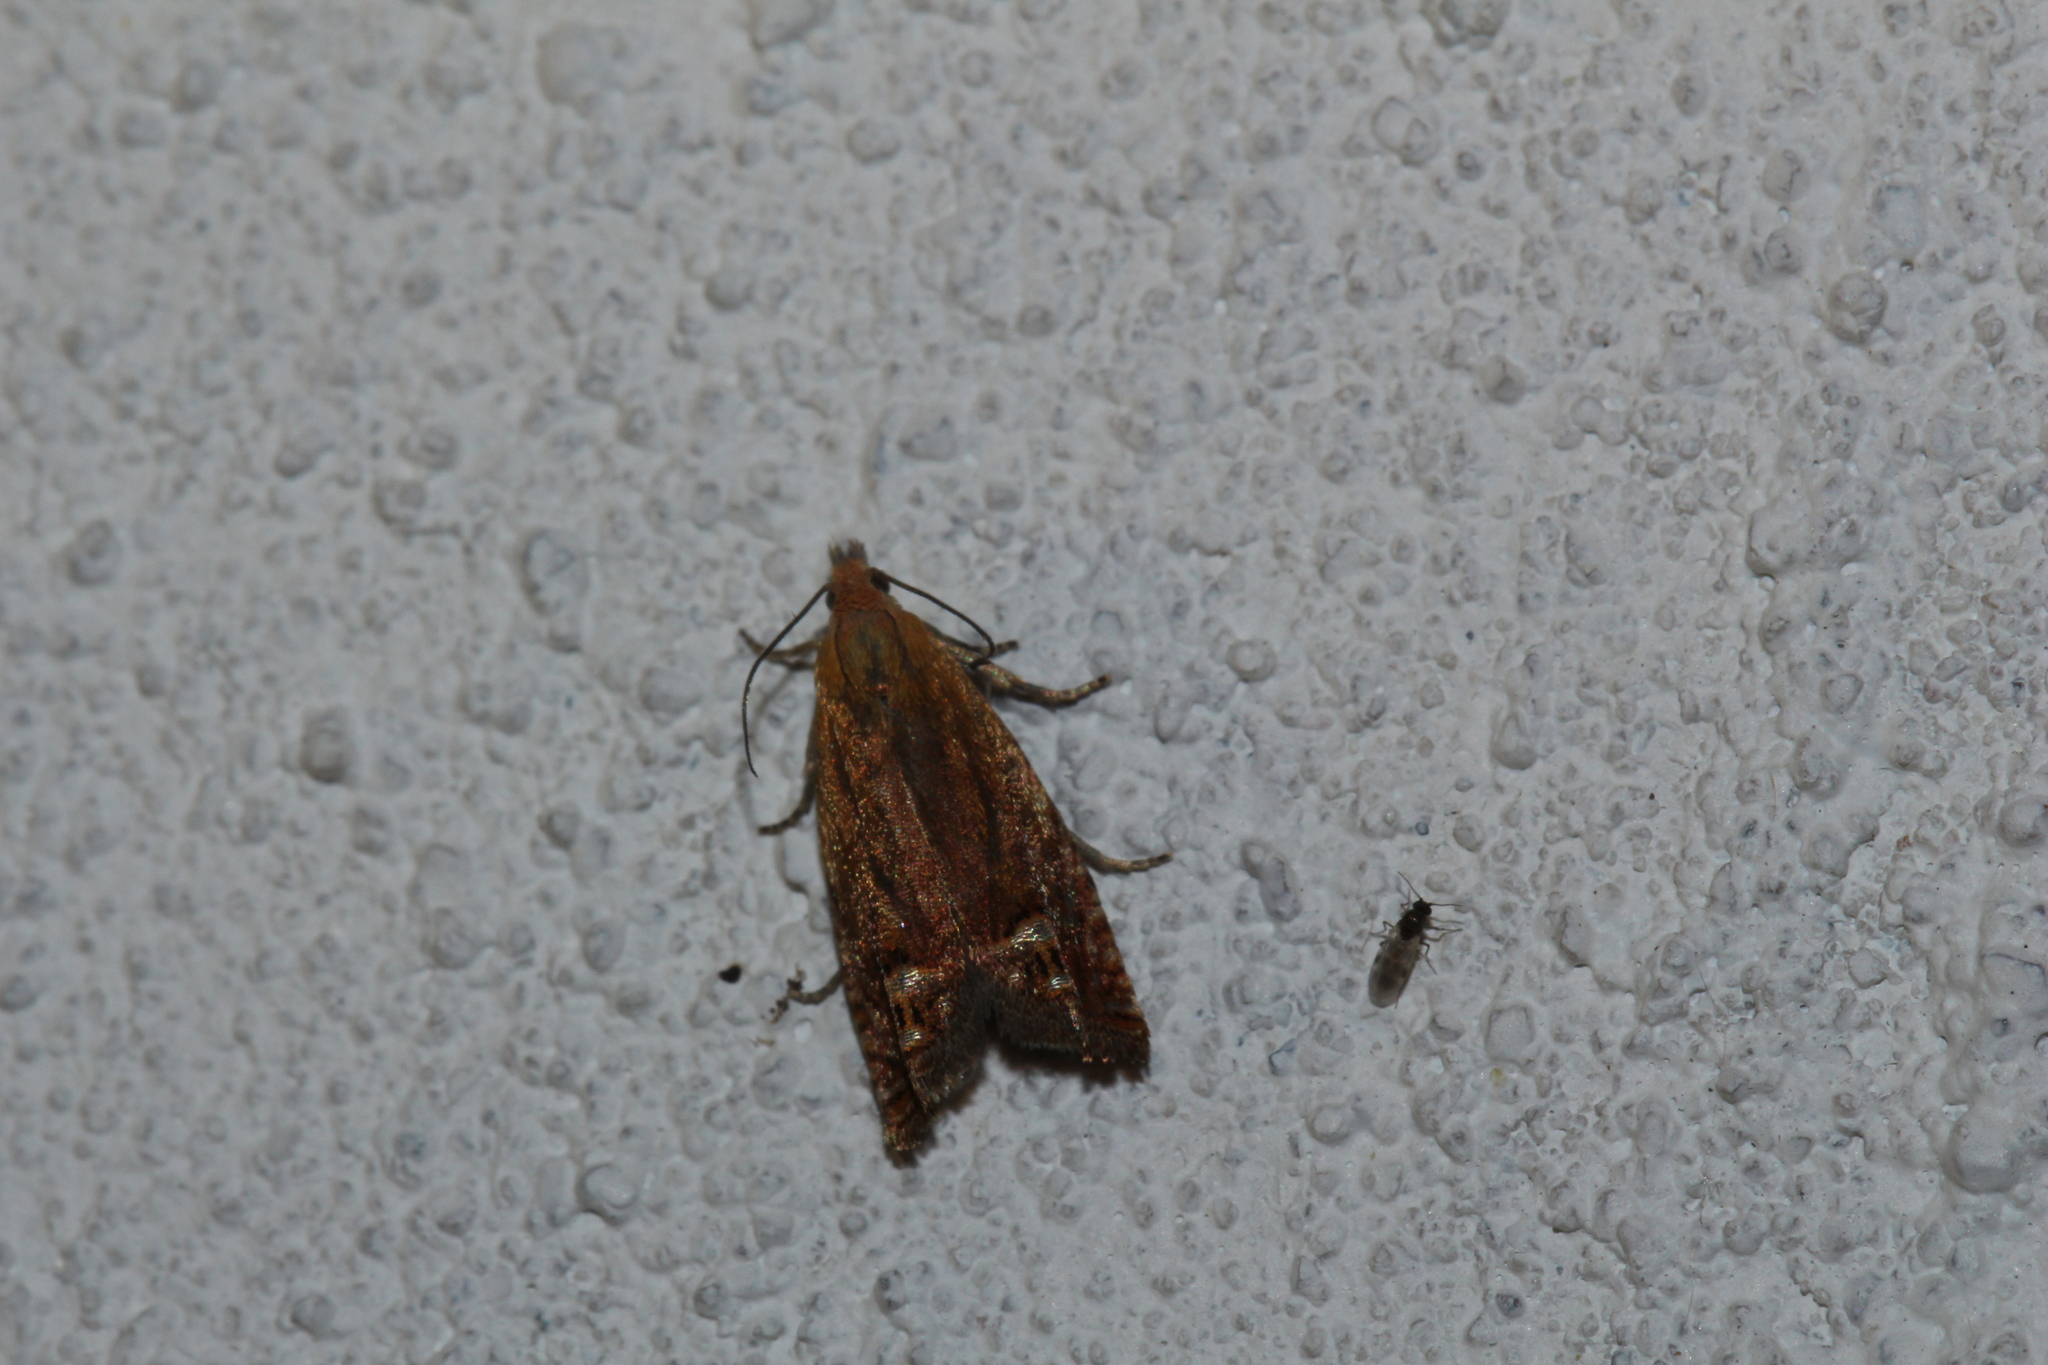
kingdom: Animalia
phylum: Arthropoda
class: Insecta
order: Lepidoptera
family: Tortricidae
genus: Lathronympha
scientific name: Lathronympha strigana
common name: Red piercer
